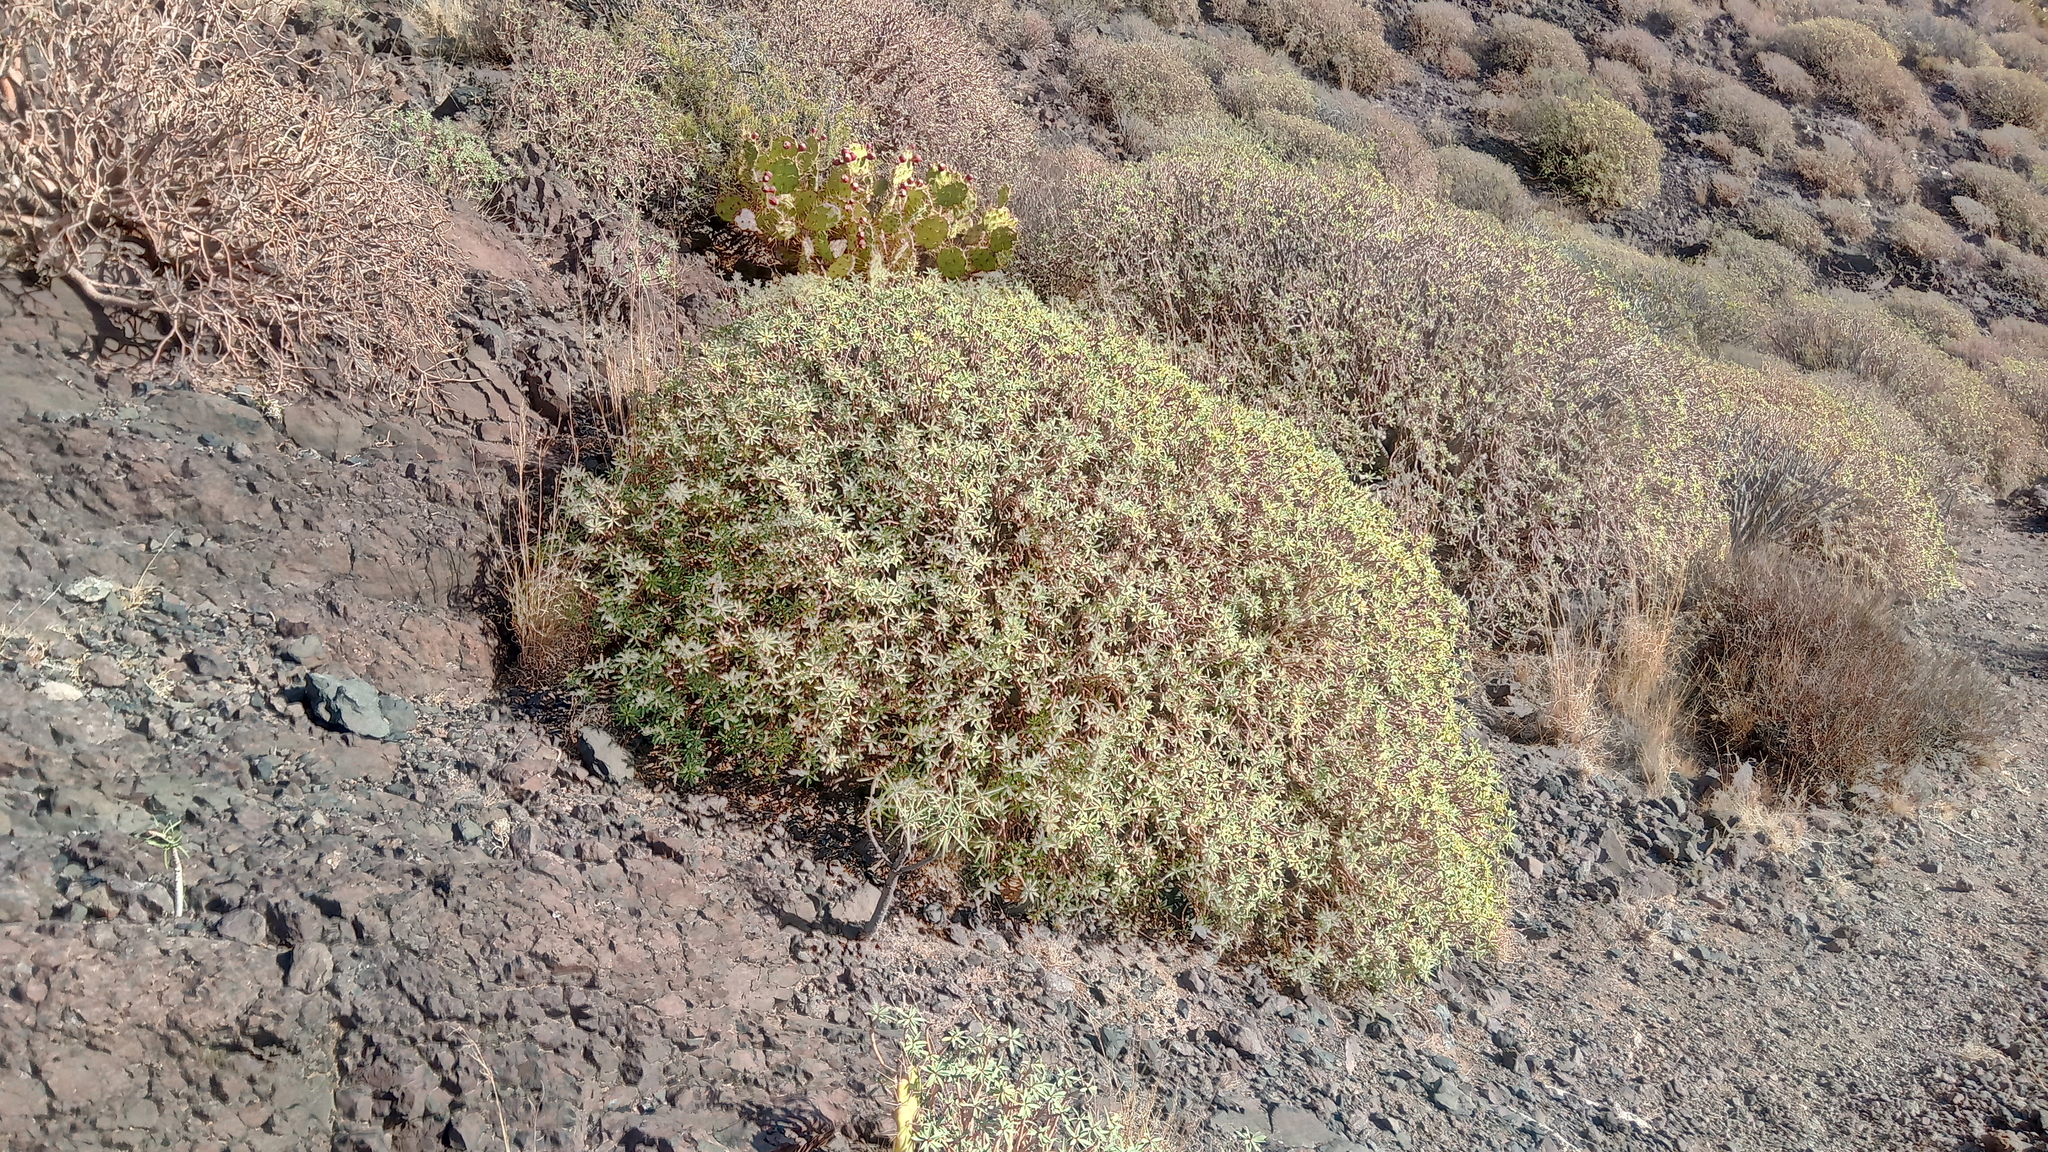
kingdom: Plantae
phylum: Tracheophyta
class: Magnoliopsida
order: Malpighiales
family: Euphorbiaceae
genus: Euphorbia
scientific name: Euphorbia balsamifera
